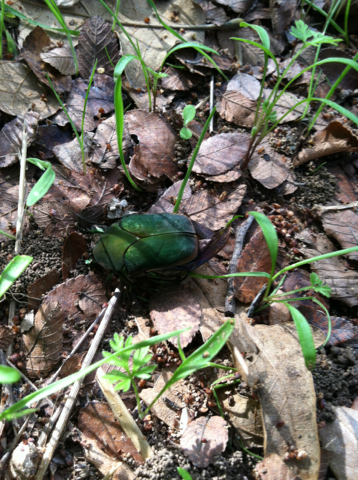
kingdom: Animalia
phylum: Arthropoda
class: Insecta
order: Coleoptera
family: Scarabaeidae
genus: Cotinis
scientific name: Cotinis nitida
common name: Common green june beetle
